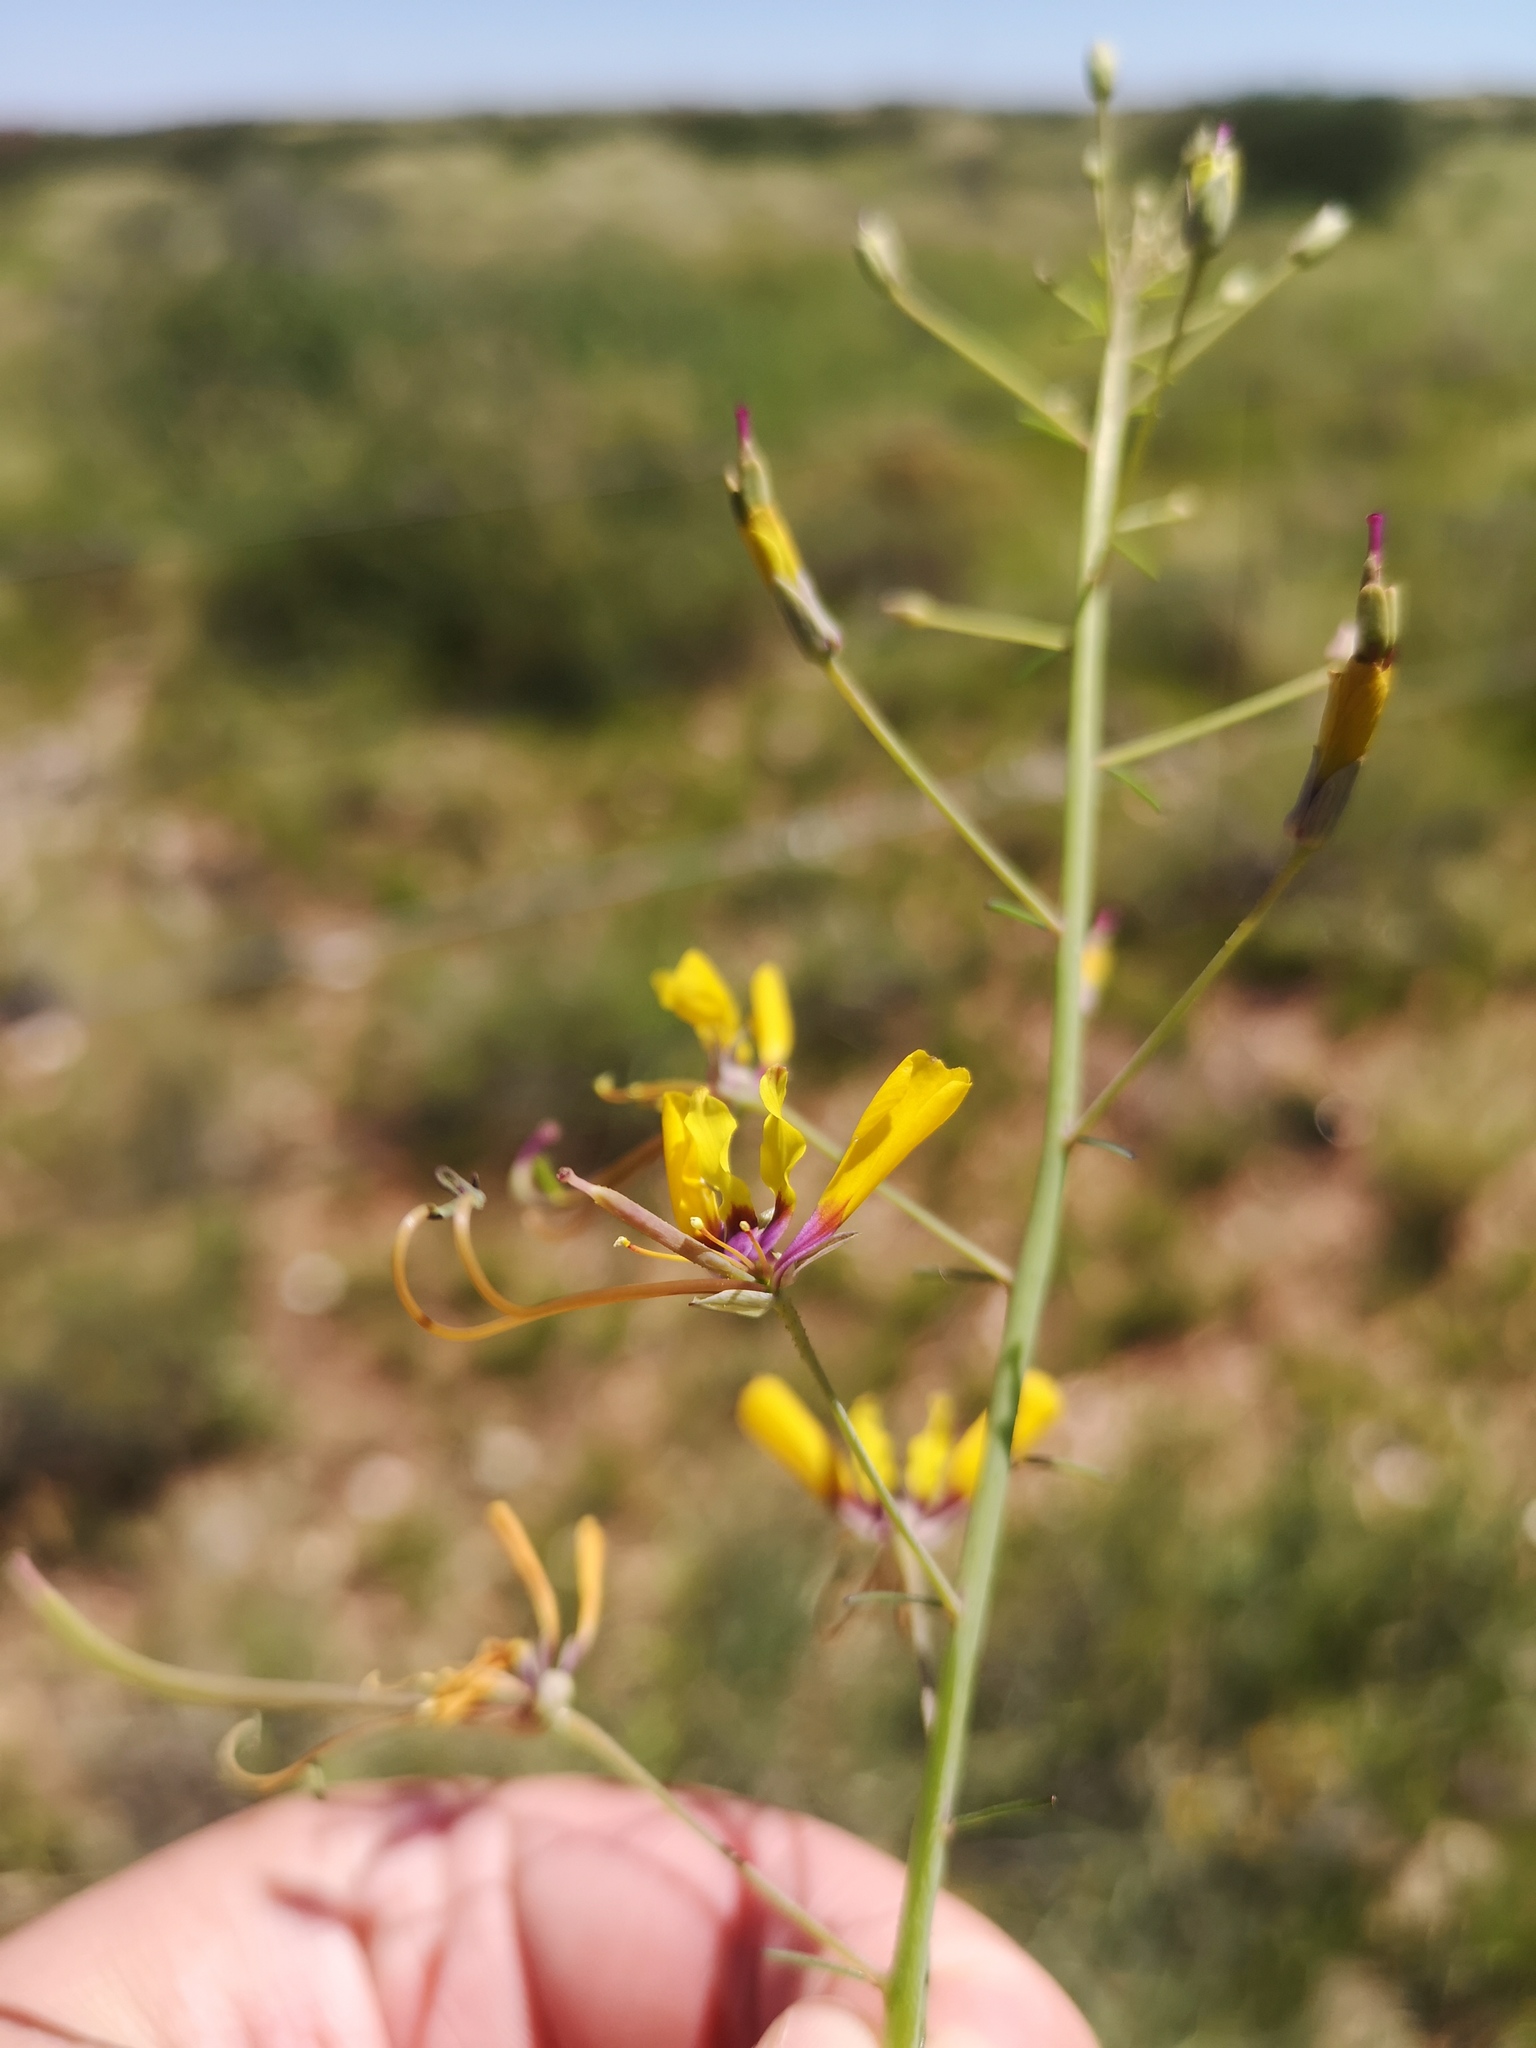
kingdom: Plantae
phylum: Tracheophyta
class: Magnoliopsida
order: Brassicales
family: Cleomaceae
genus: Coalisina
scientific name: Coalisina
